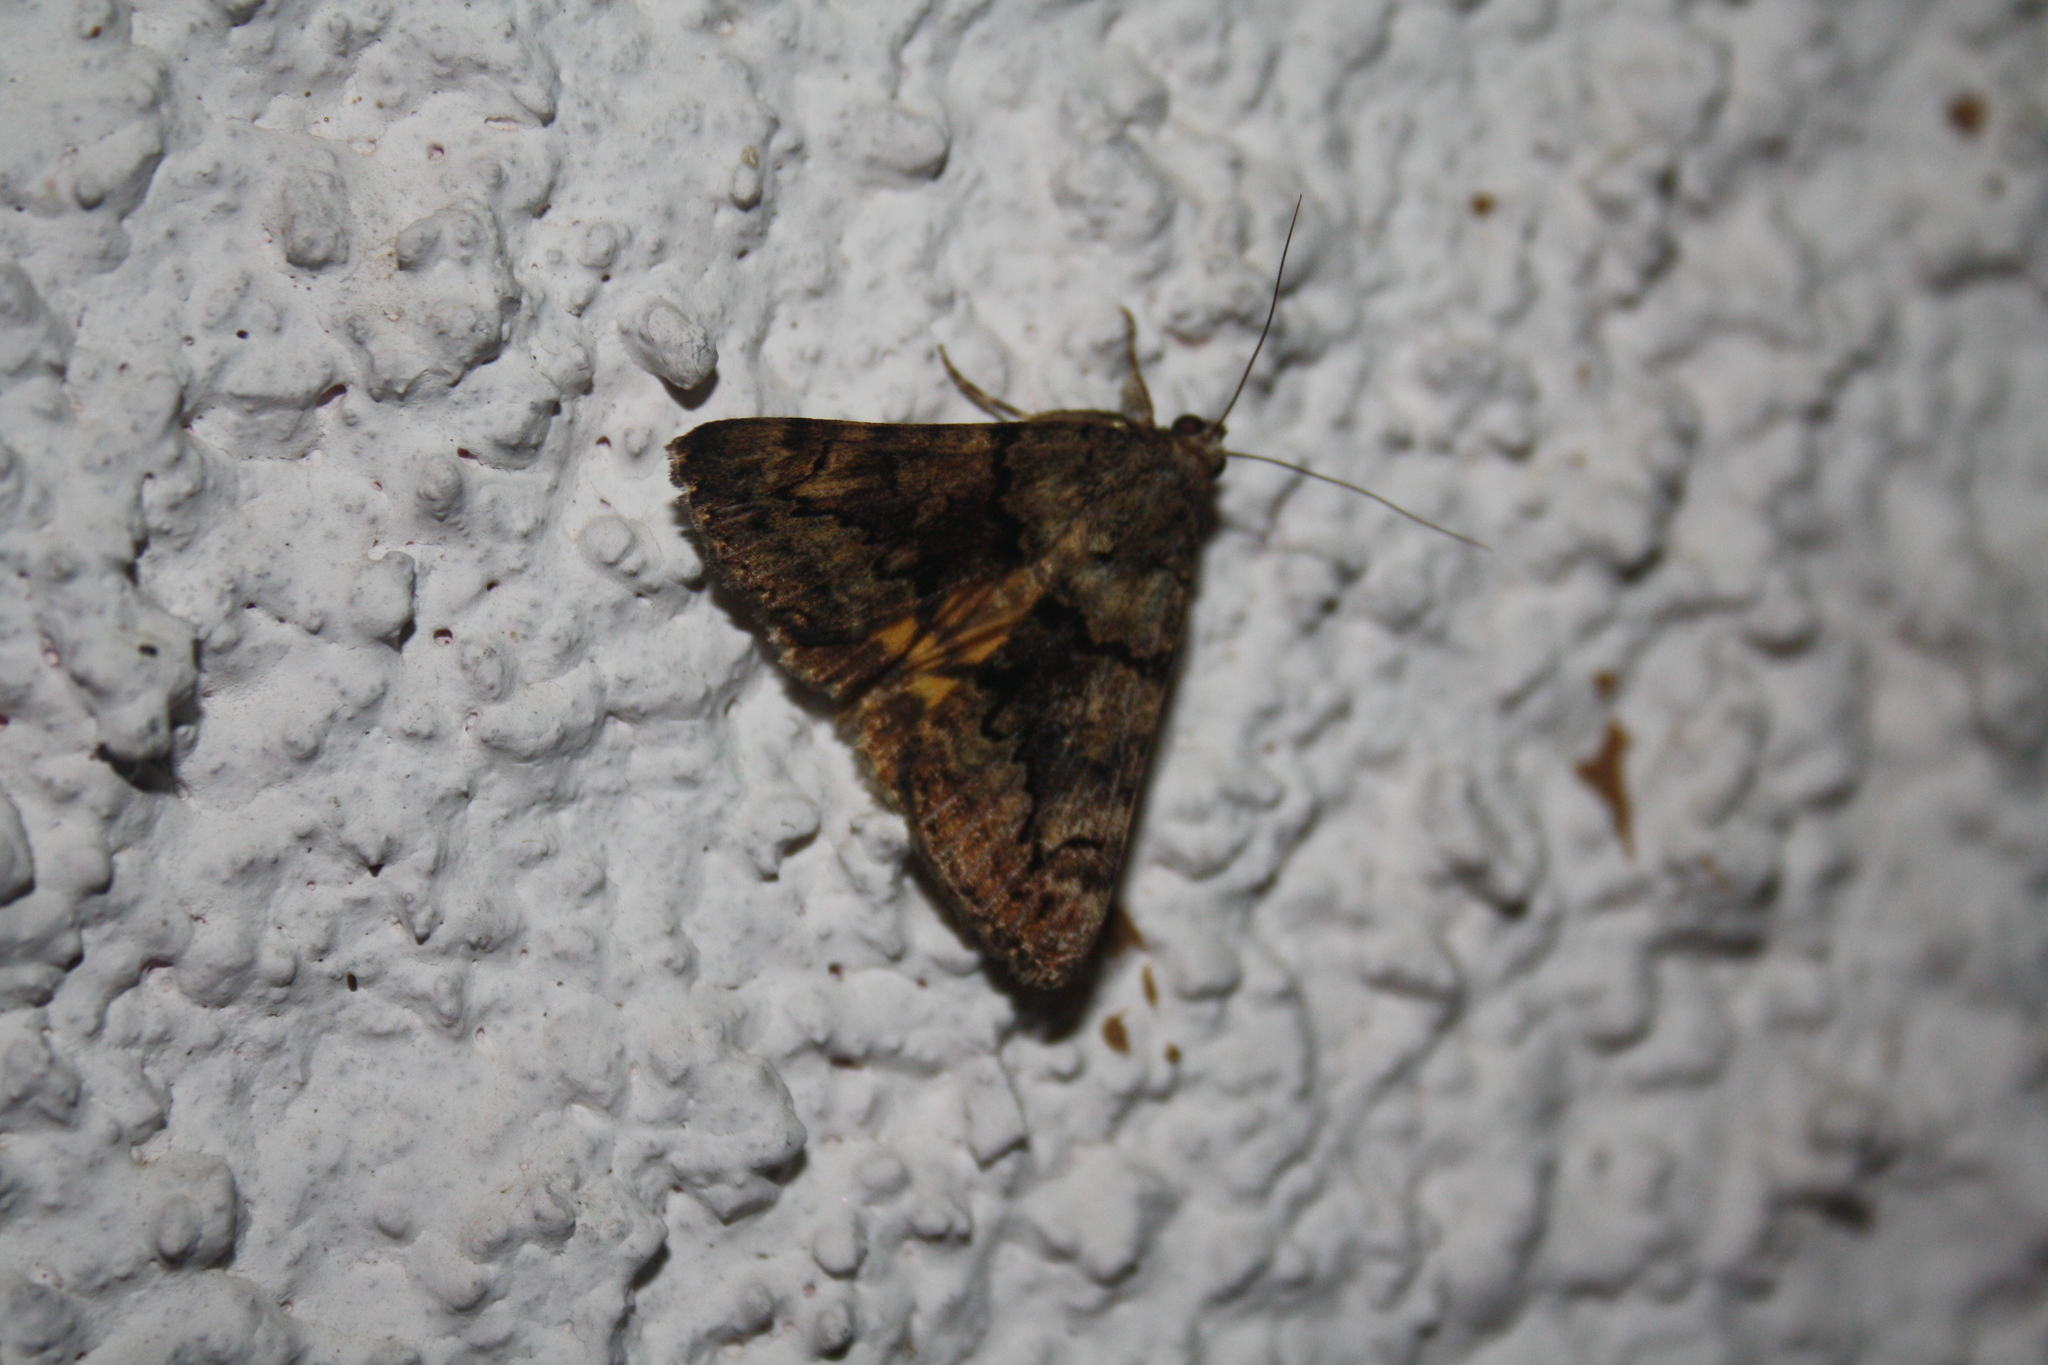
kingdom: Animalia
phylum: Arthropoda
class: Insecta
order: Lepidoptera
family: Erebidae
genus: Catocala
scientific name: Catocala nymphagoga
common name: Oak yellow underwing
